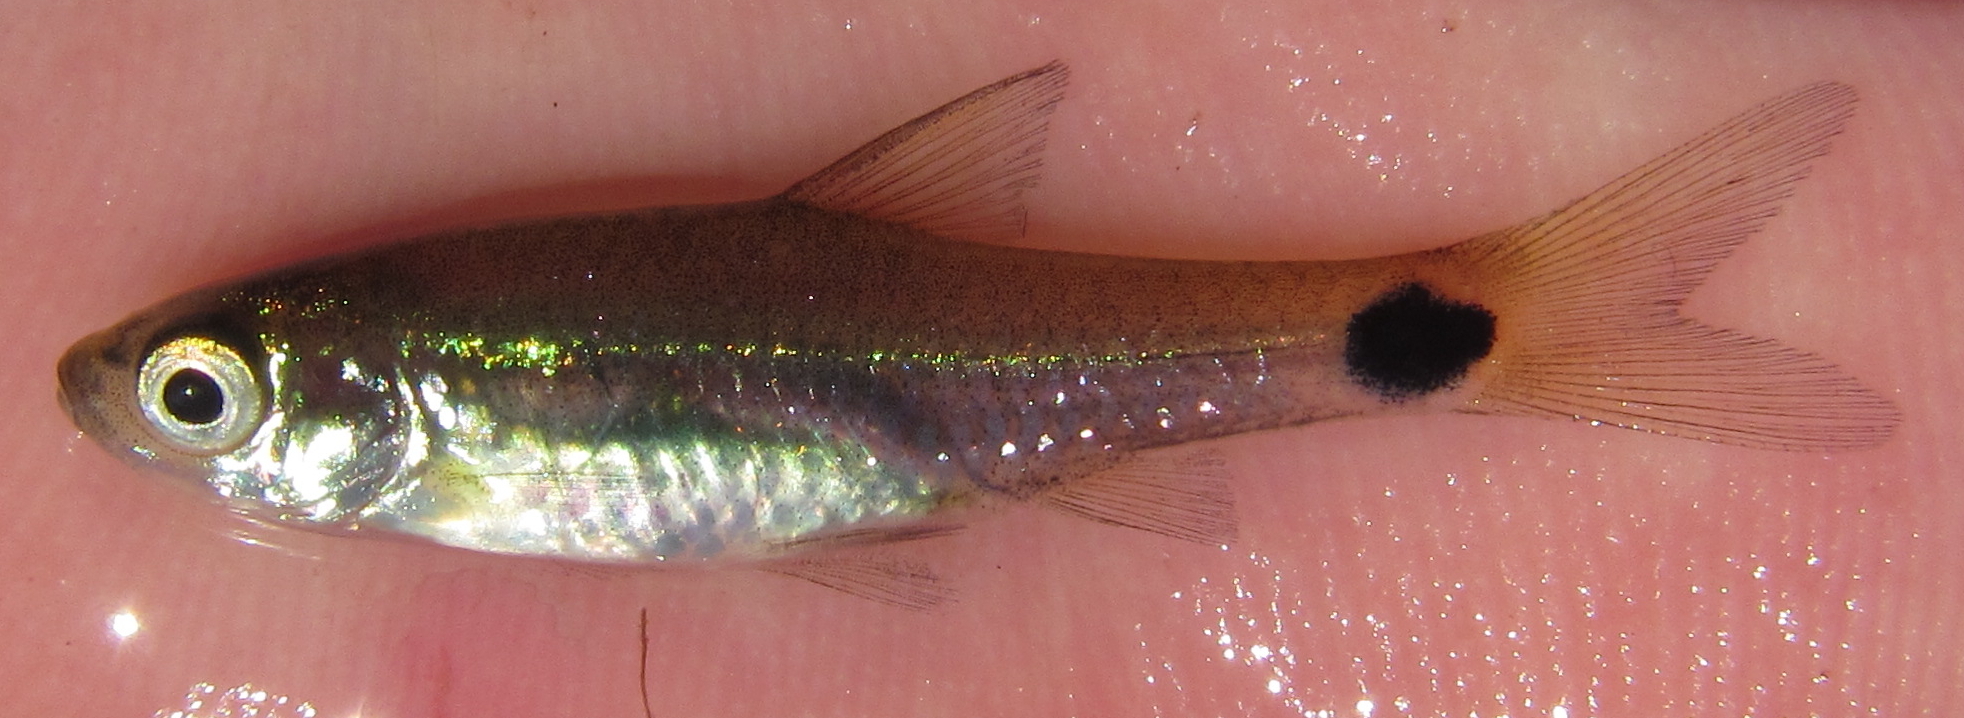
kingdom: Animalia
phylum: Chordata
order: Cypriniformes
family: Cyprinidae
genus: Enteromius
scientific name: Enteromius afrovernayi
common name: Spottail barb
